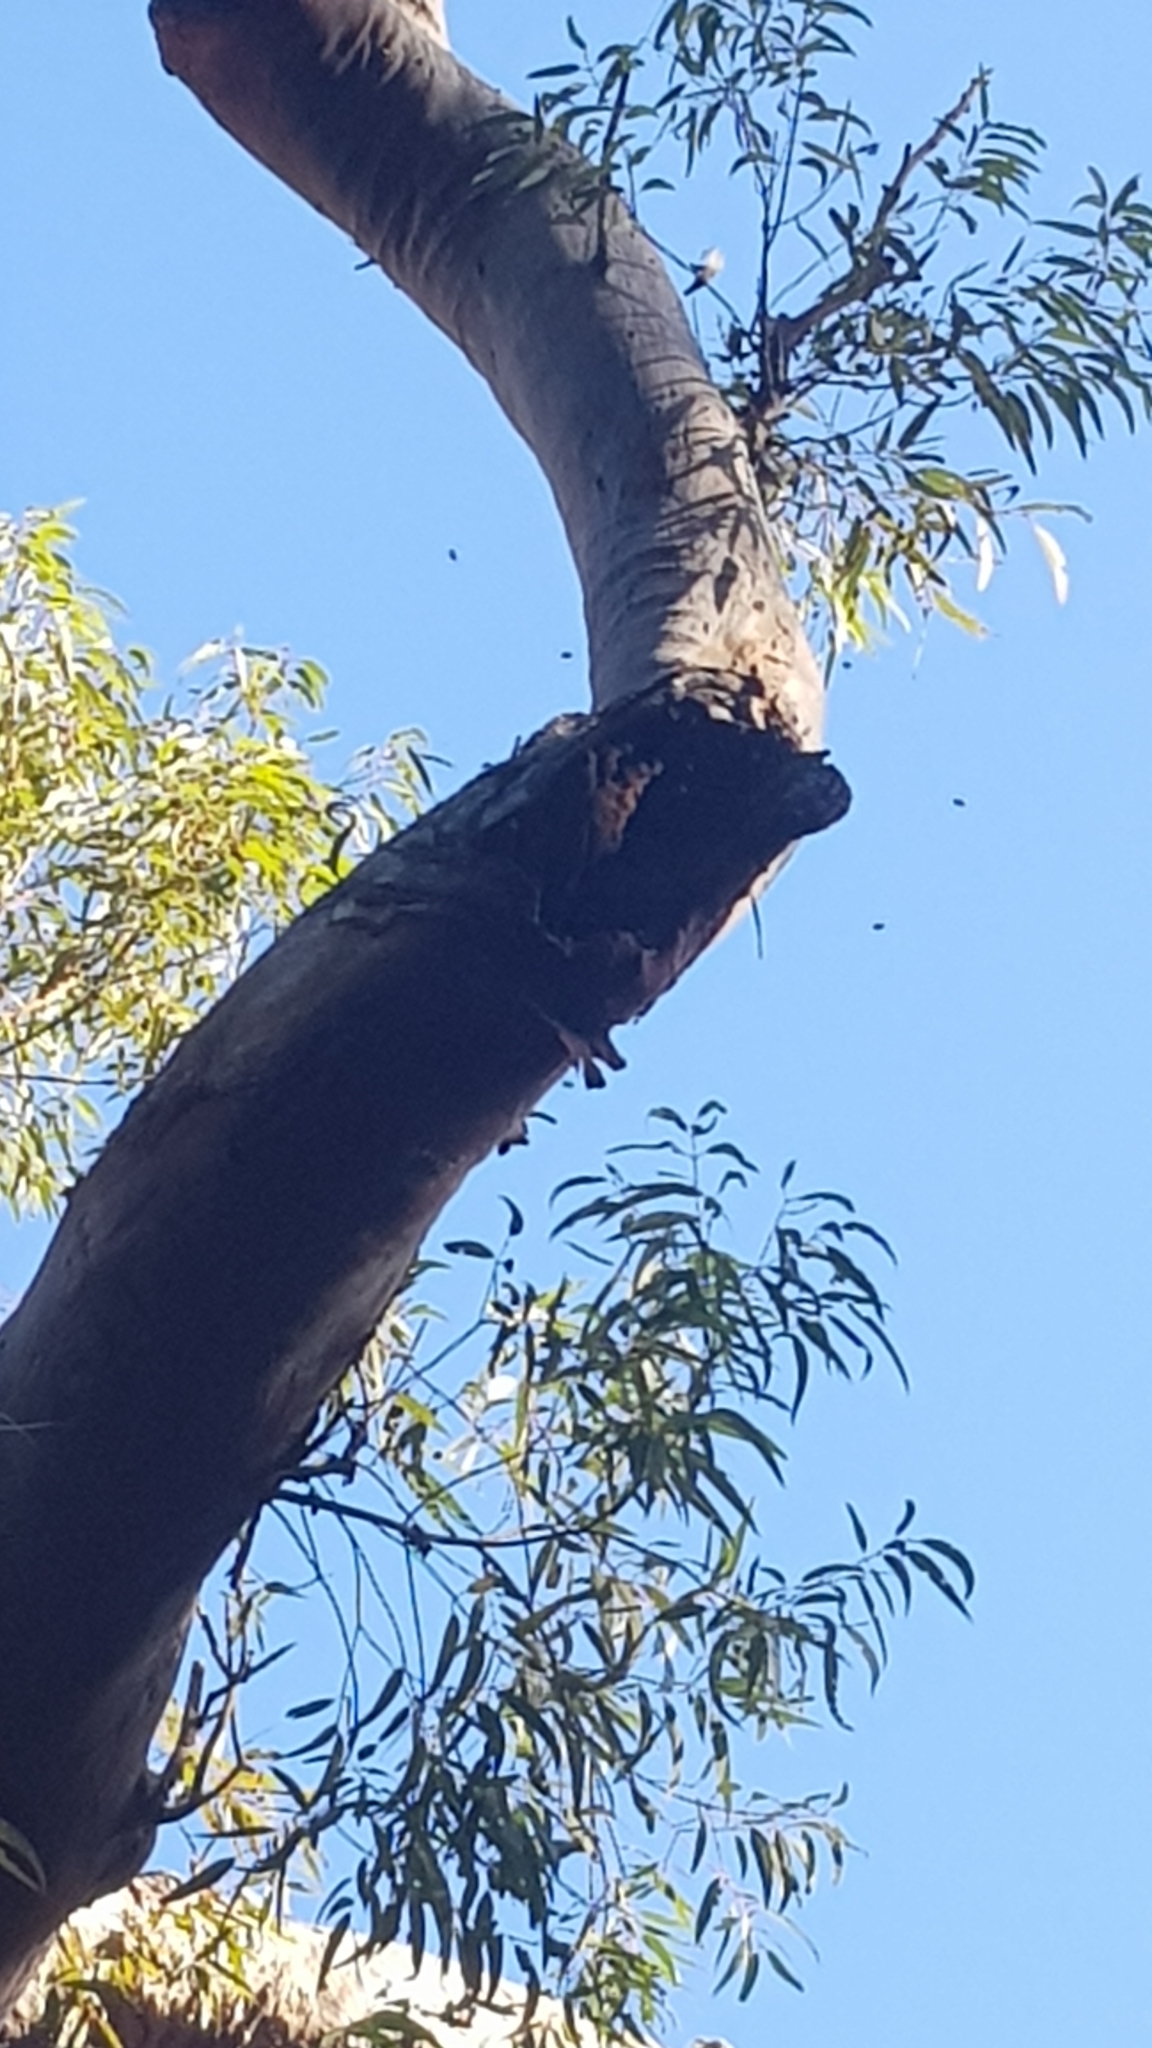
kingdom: Animalia
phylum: Arthropoda
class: Insecta
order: Hymenoptera
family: Apidae
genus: Apis
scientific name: Apis mellifera
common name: Honey bee
